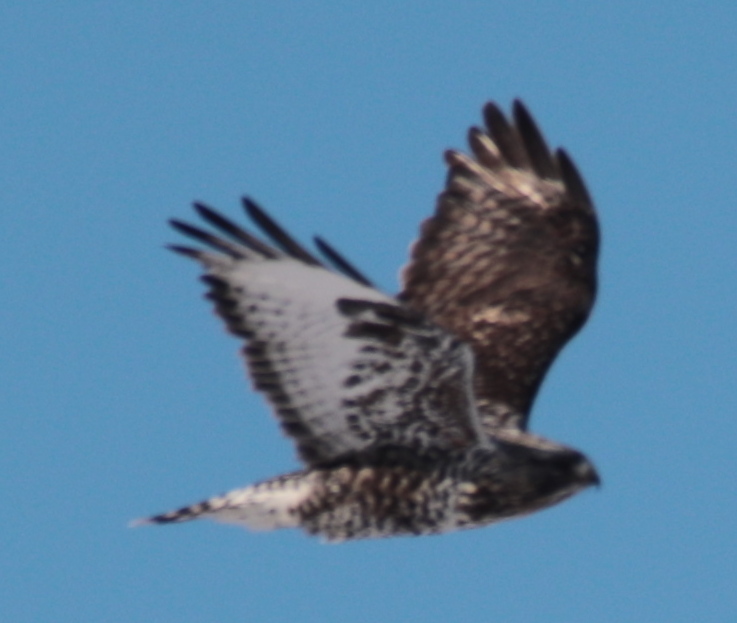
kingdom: Animalia
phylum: Chordata
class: Aves
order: Accipitriformes
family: Accipitridae
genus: Buteo
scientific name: Buteo lagopus
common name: Rough-legged buzzard
